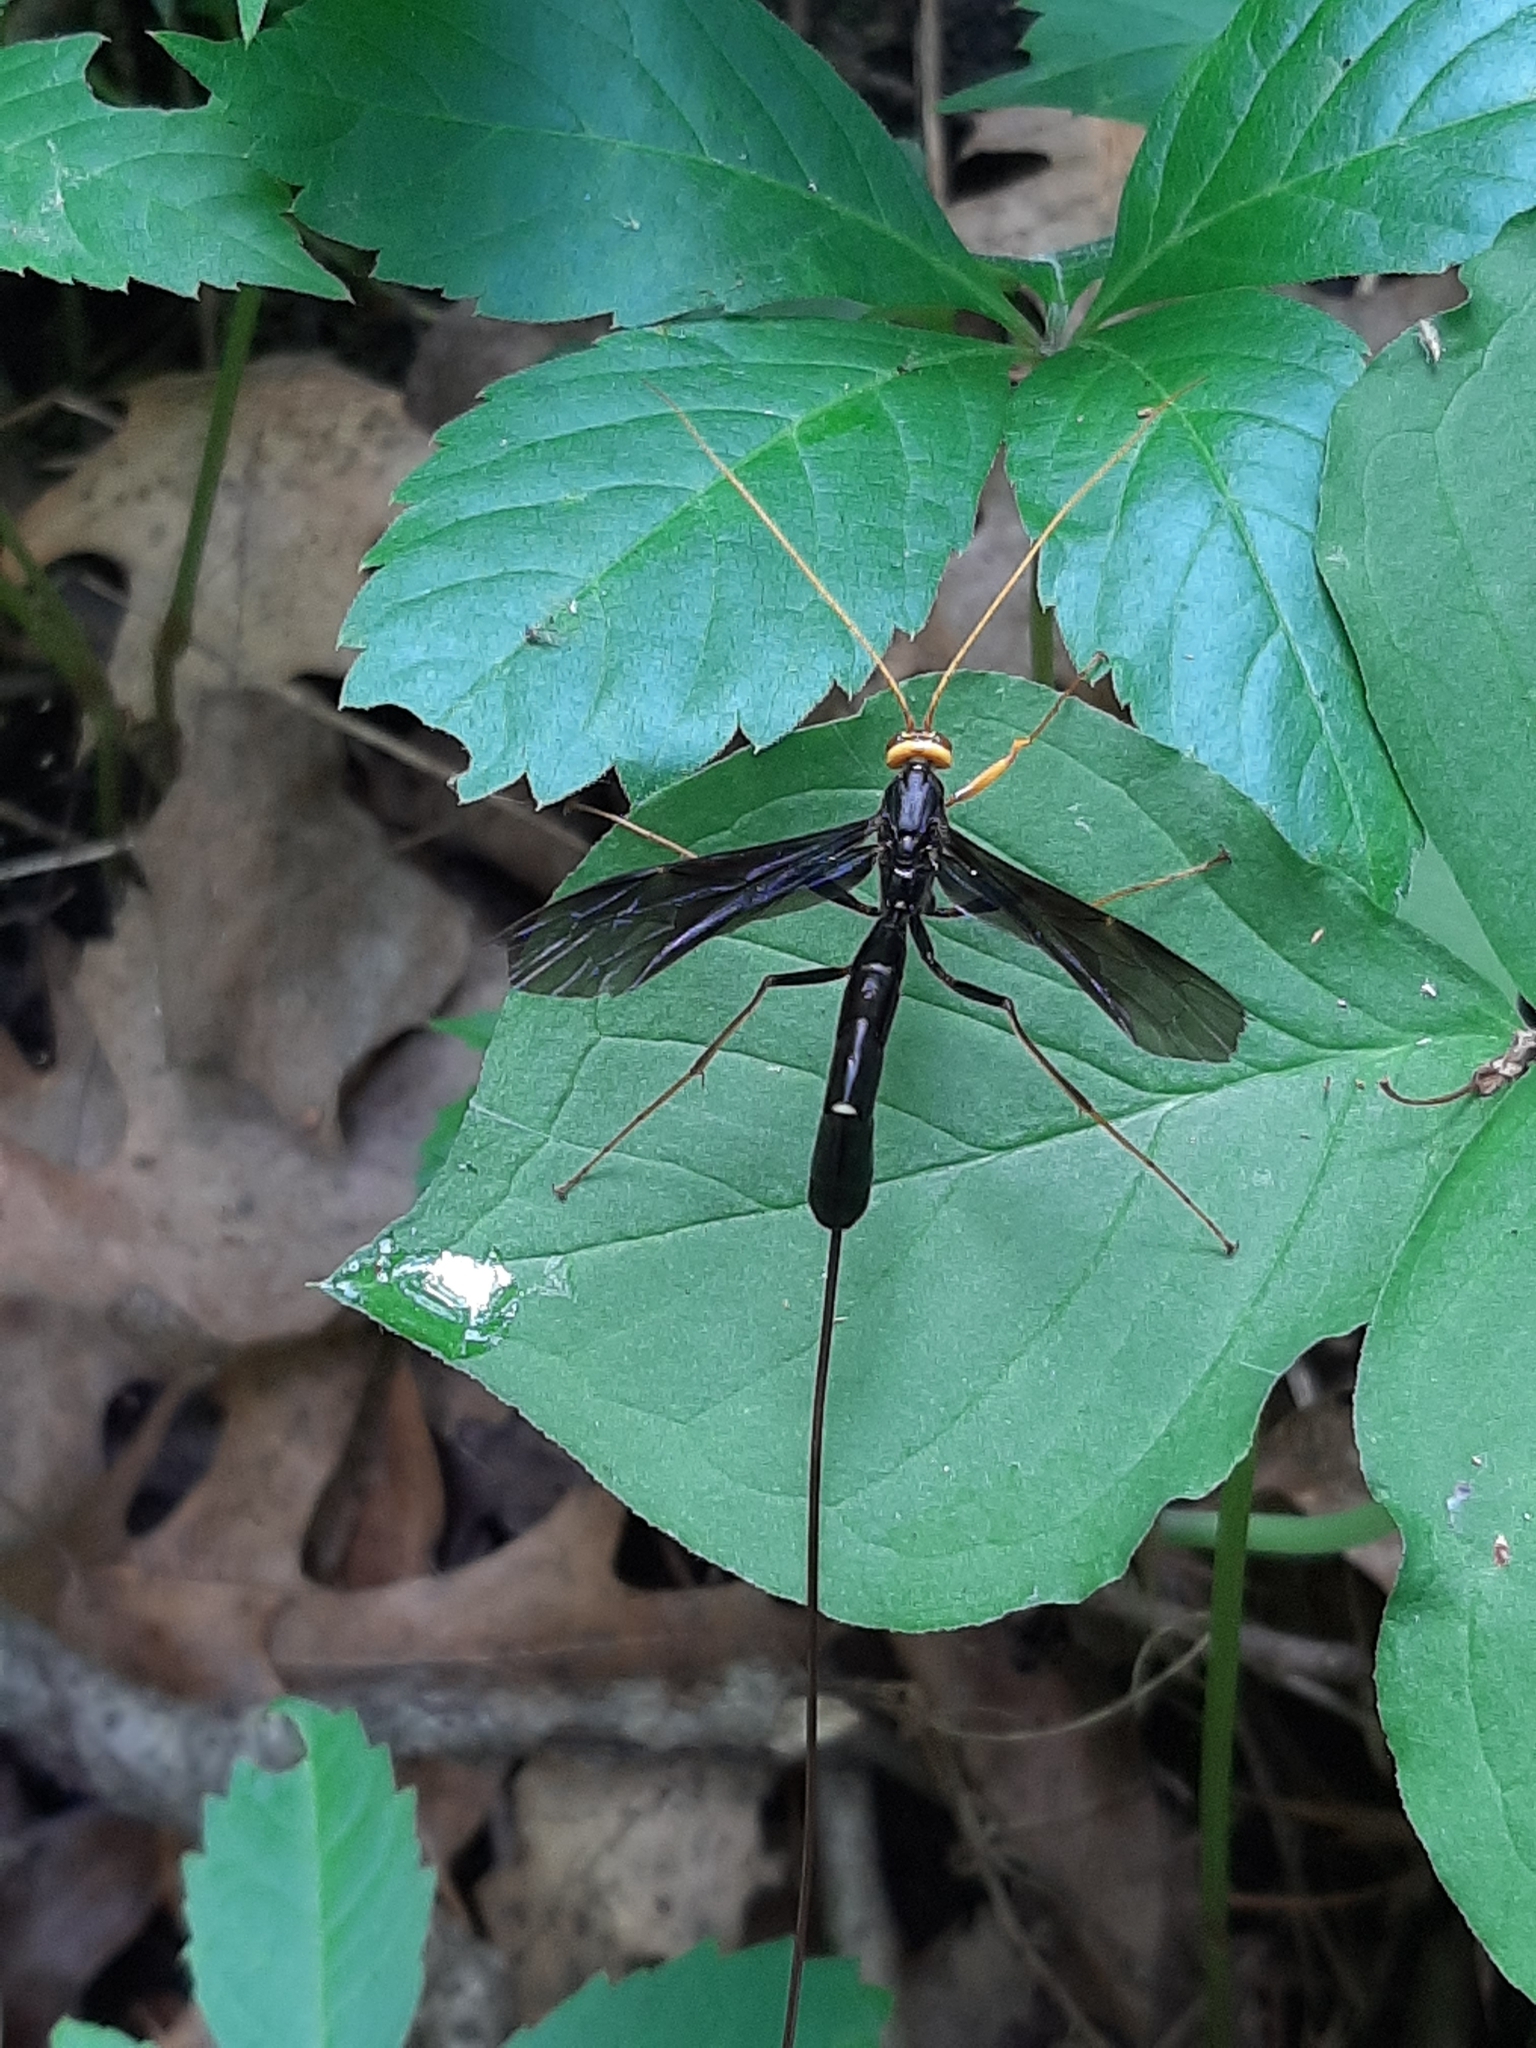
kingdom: Animalia
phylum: Arthropoda
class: Insecta
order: Hymenoptera
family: Ichneumonidae
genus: Megarhyssa
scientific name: Megarhyssa atrata
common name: Black giant ichneumonid wasp
